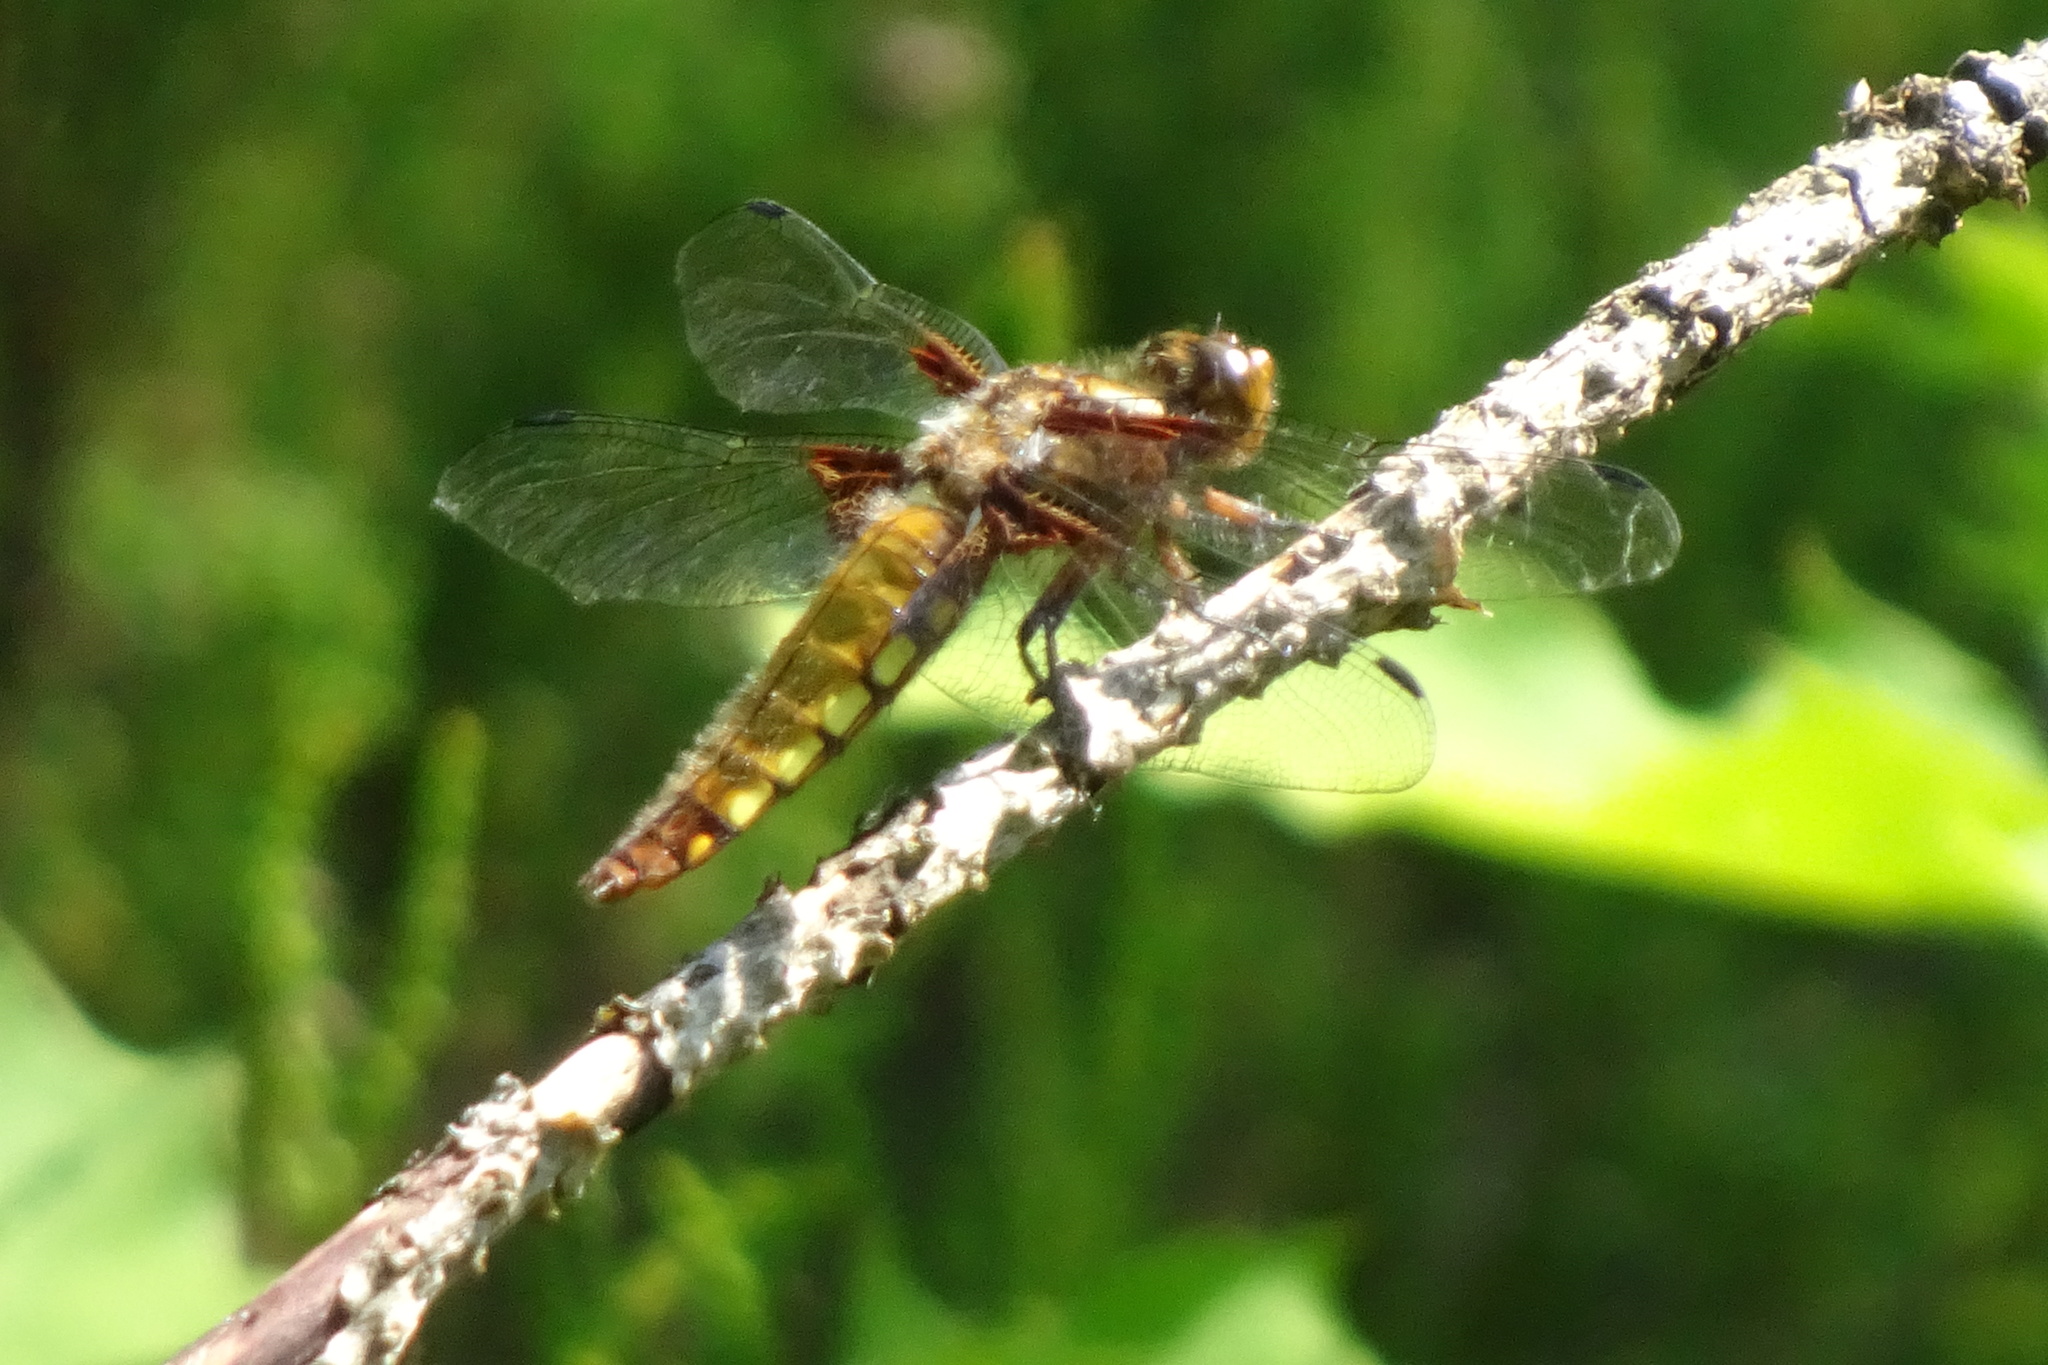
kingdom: Animalia
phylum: Arthropoda
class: Insecta
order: Odonata
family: Libellulidae
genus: Libellula
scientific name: Libellula depressa
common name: Broad-bodied chaser
